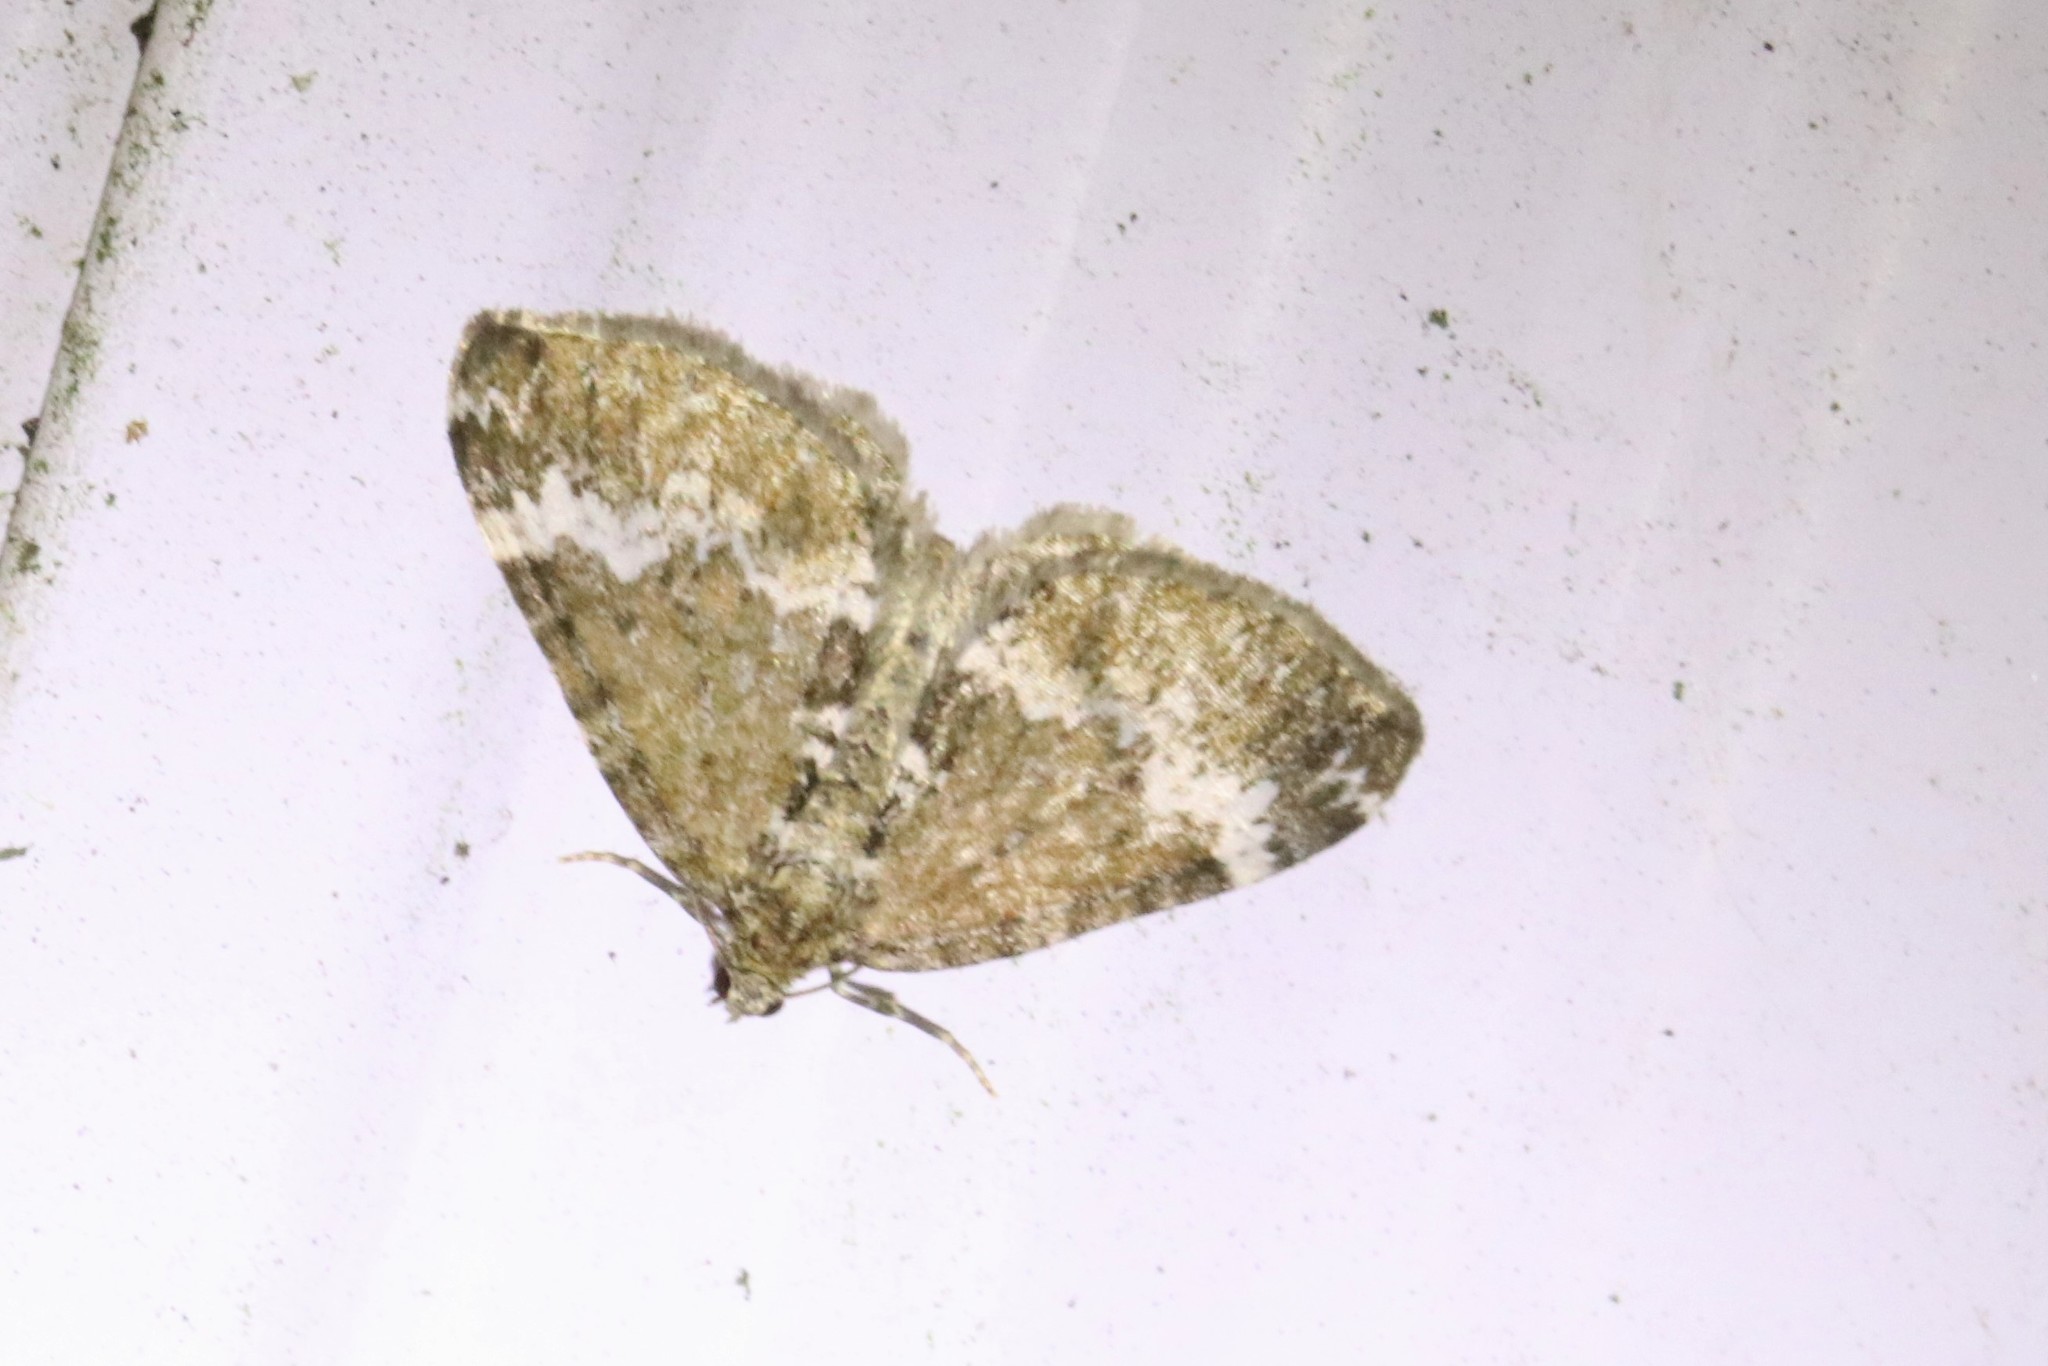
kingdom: Animalia
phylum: Arthropoda
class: Insecta
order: Lepidoptera
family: Geometridae
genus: Perizoma
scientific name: Perizoma alchemillata
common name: Small rivulet
